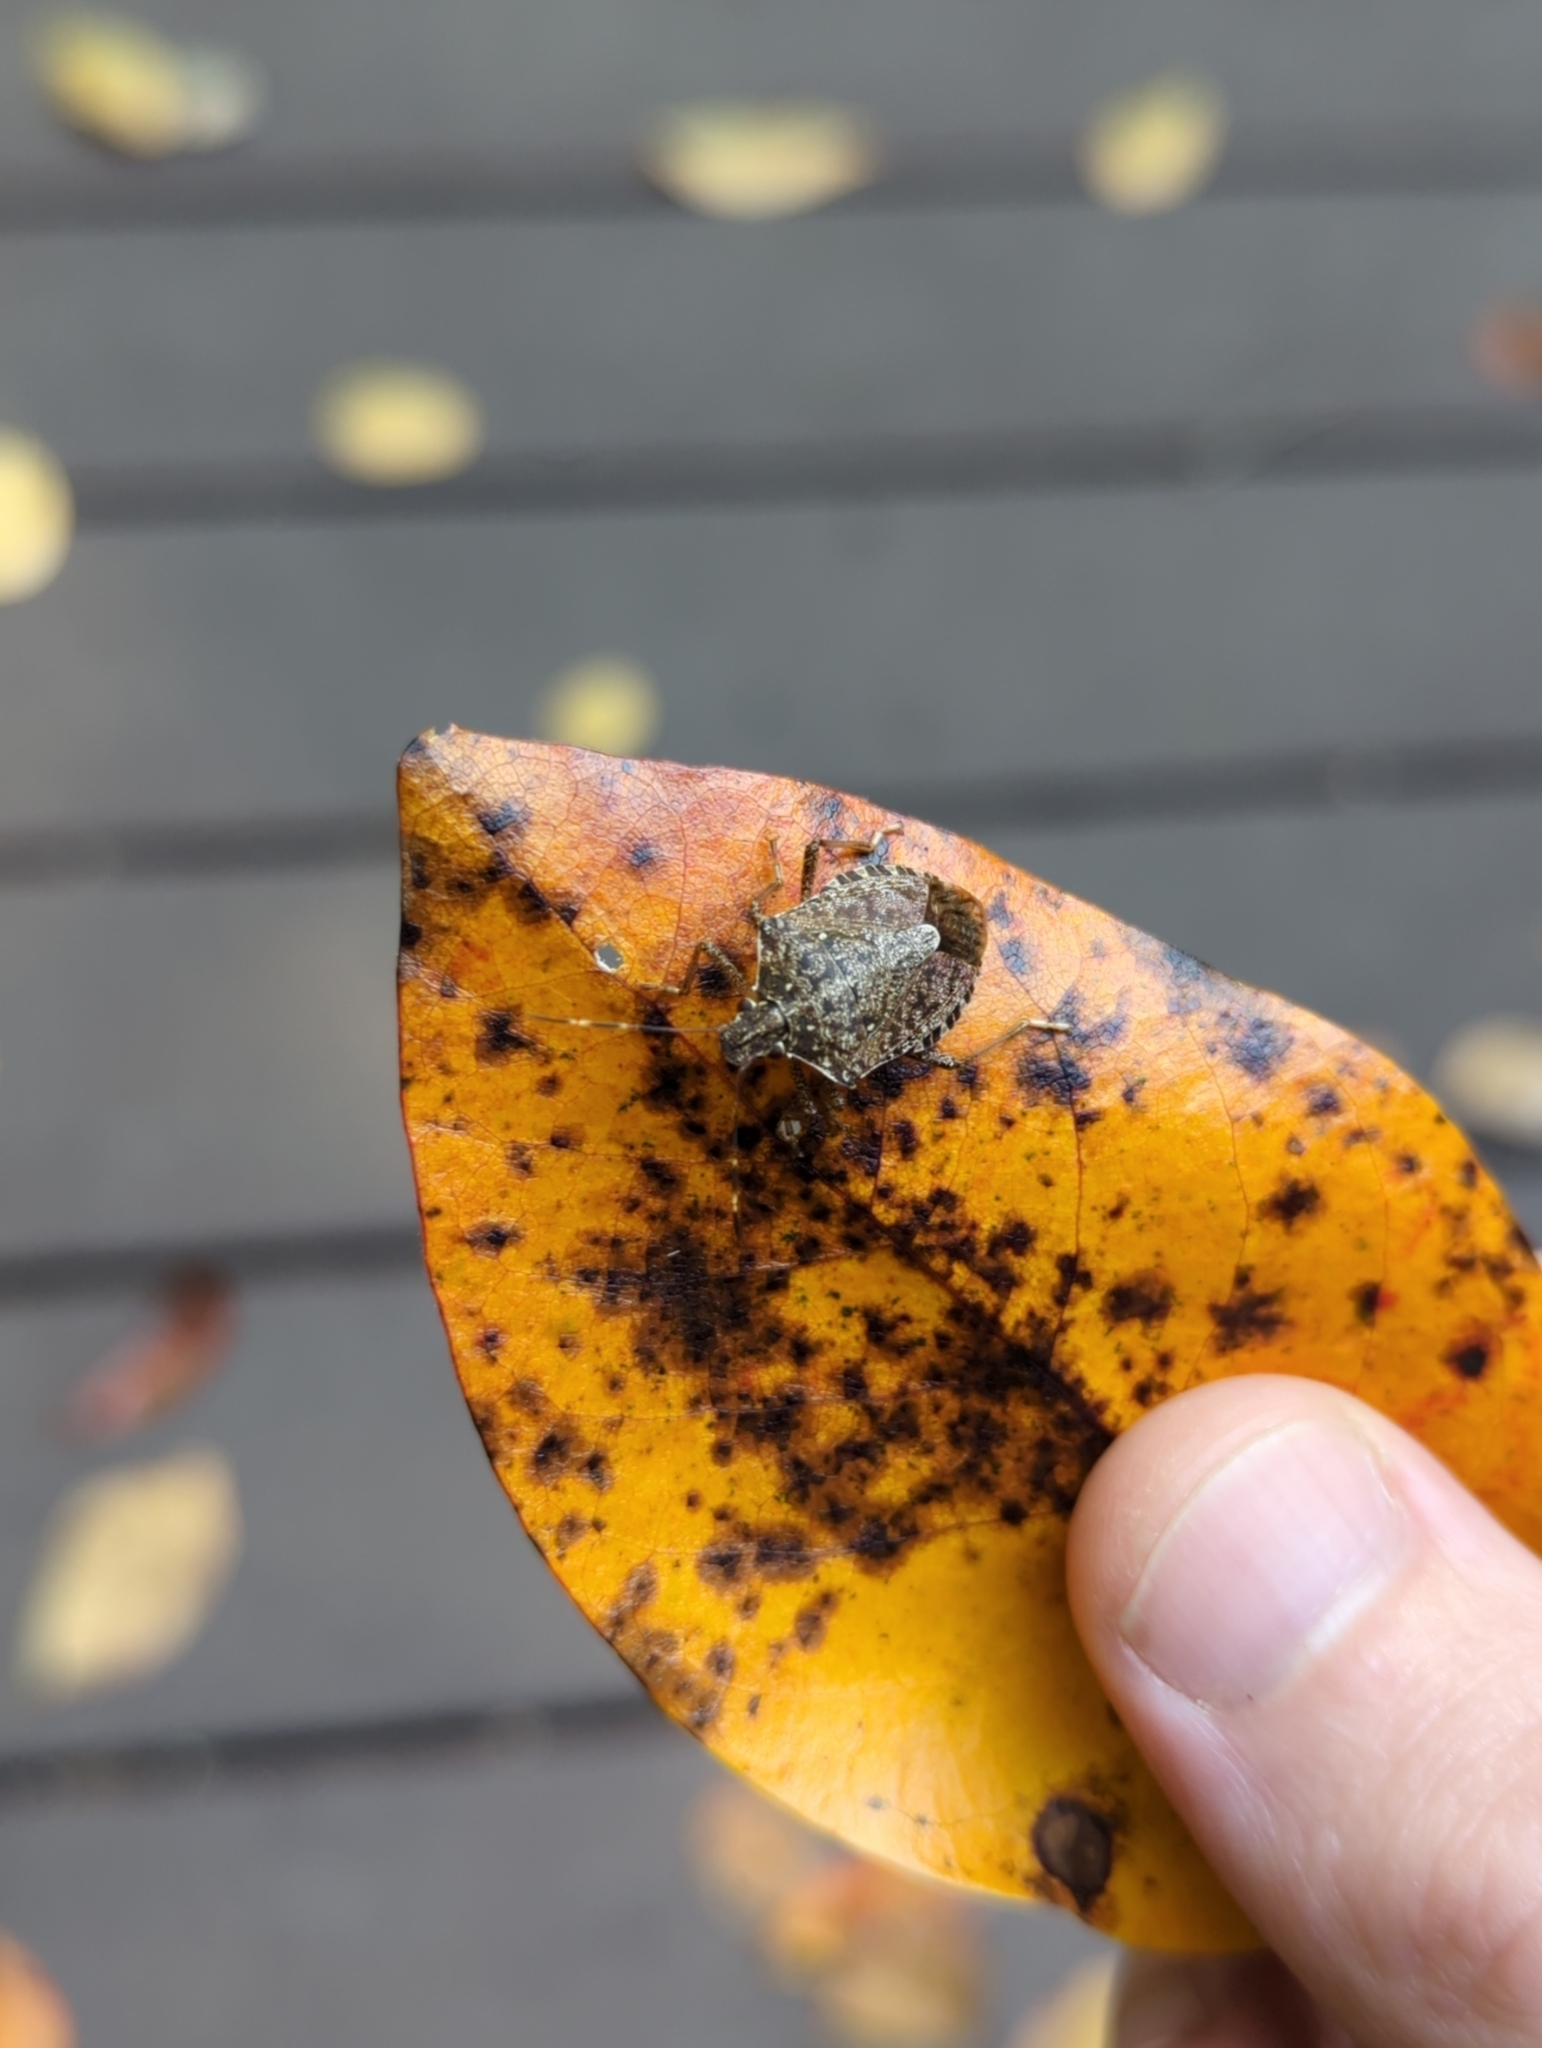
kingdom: Animalia
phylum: Arthropoda
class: Insecta
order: Hemiptera
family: Pentatomidae
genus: Halyomorpha
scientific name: Halyomorpha halys
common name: Brown marmorated stink bug
